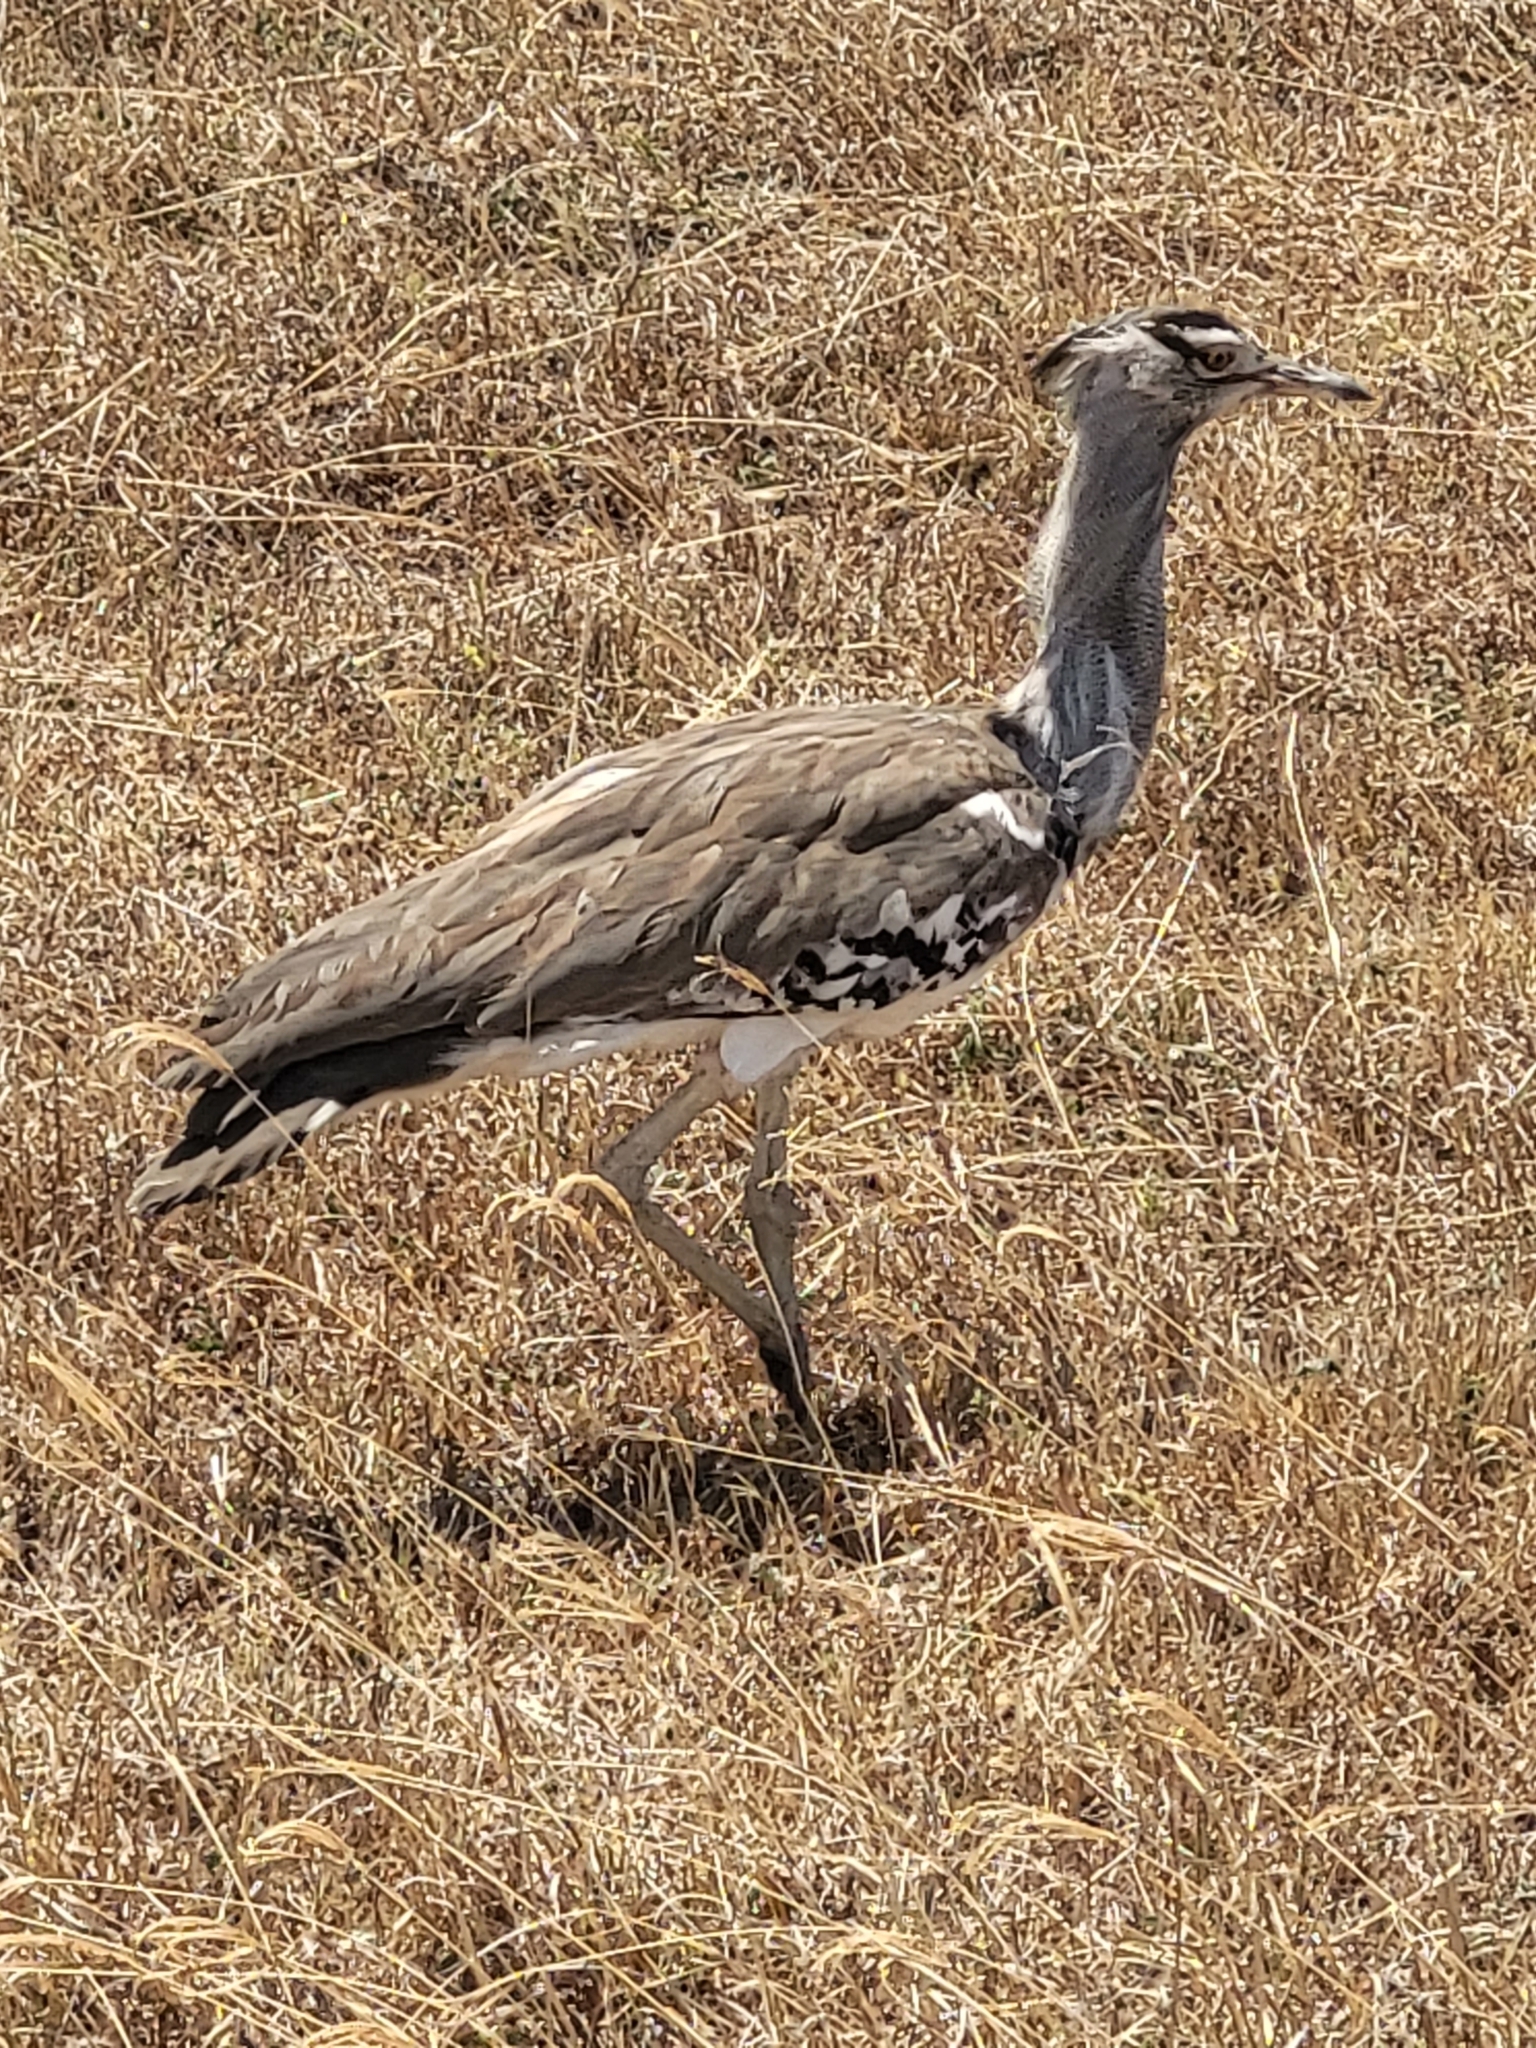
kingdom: Animalia
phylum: Chordata
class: Aves
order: Otidiformes
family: Otididae
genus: Ardeotis
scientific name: Ardeotis kori
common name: Kori bustard
